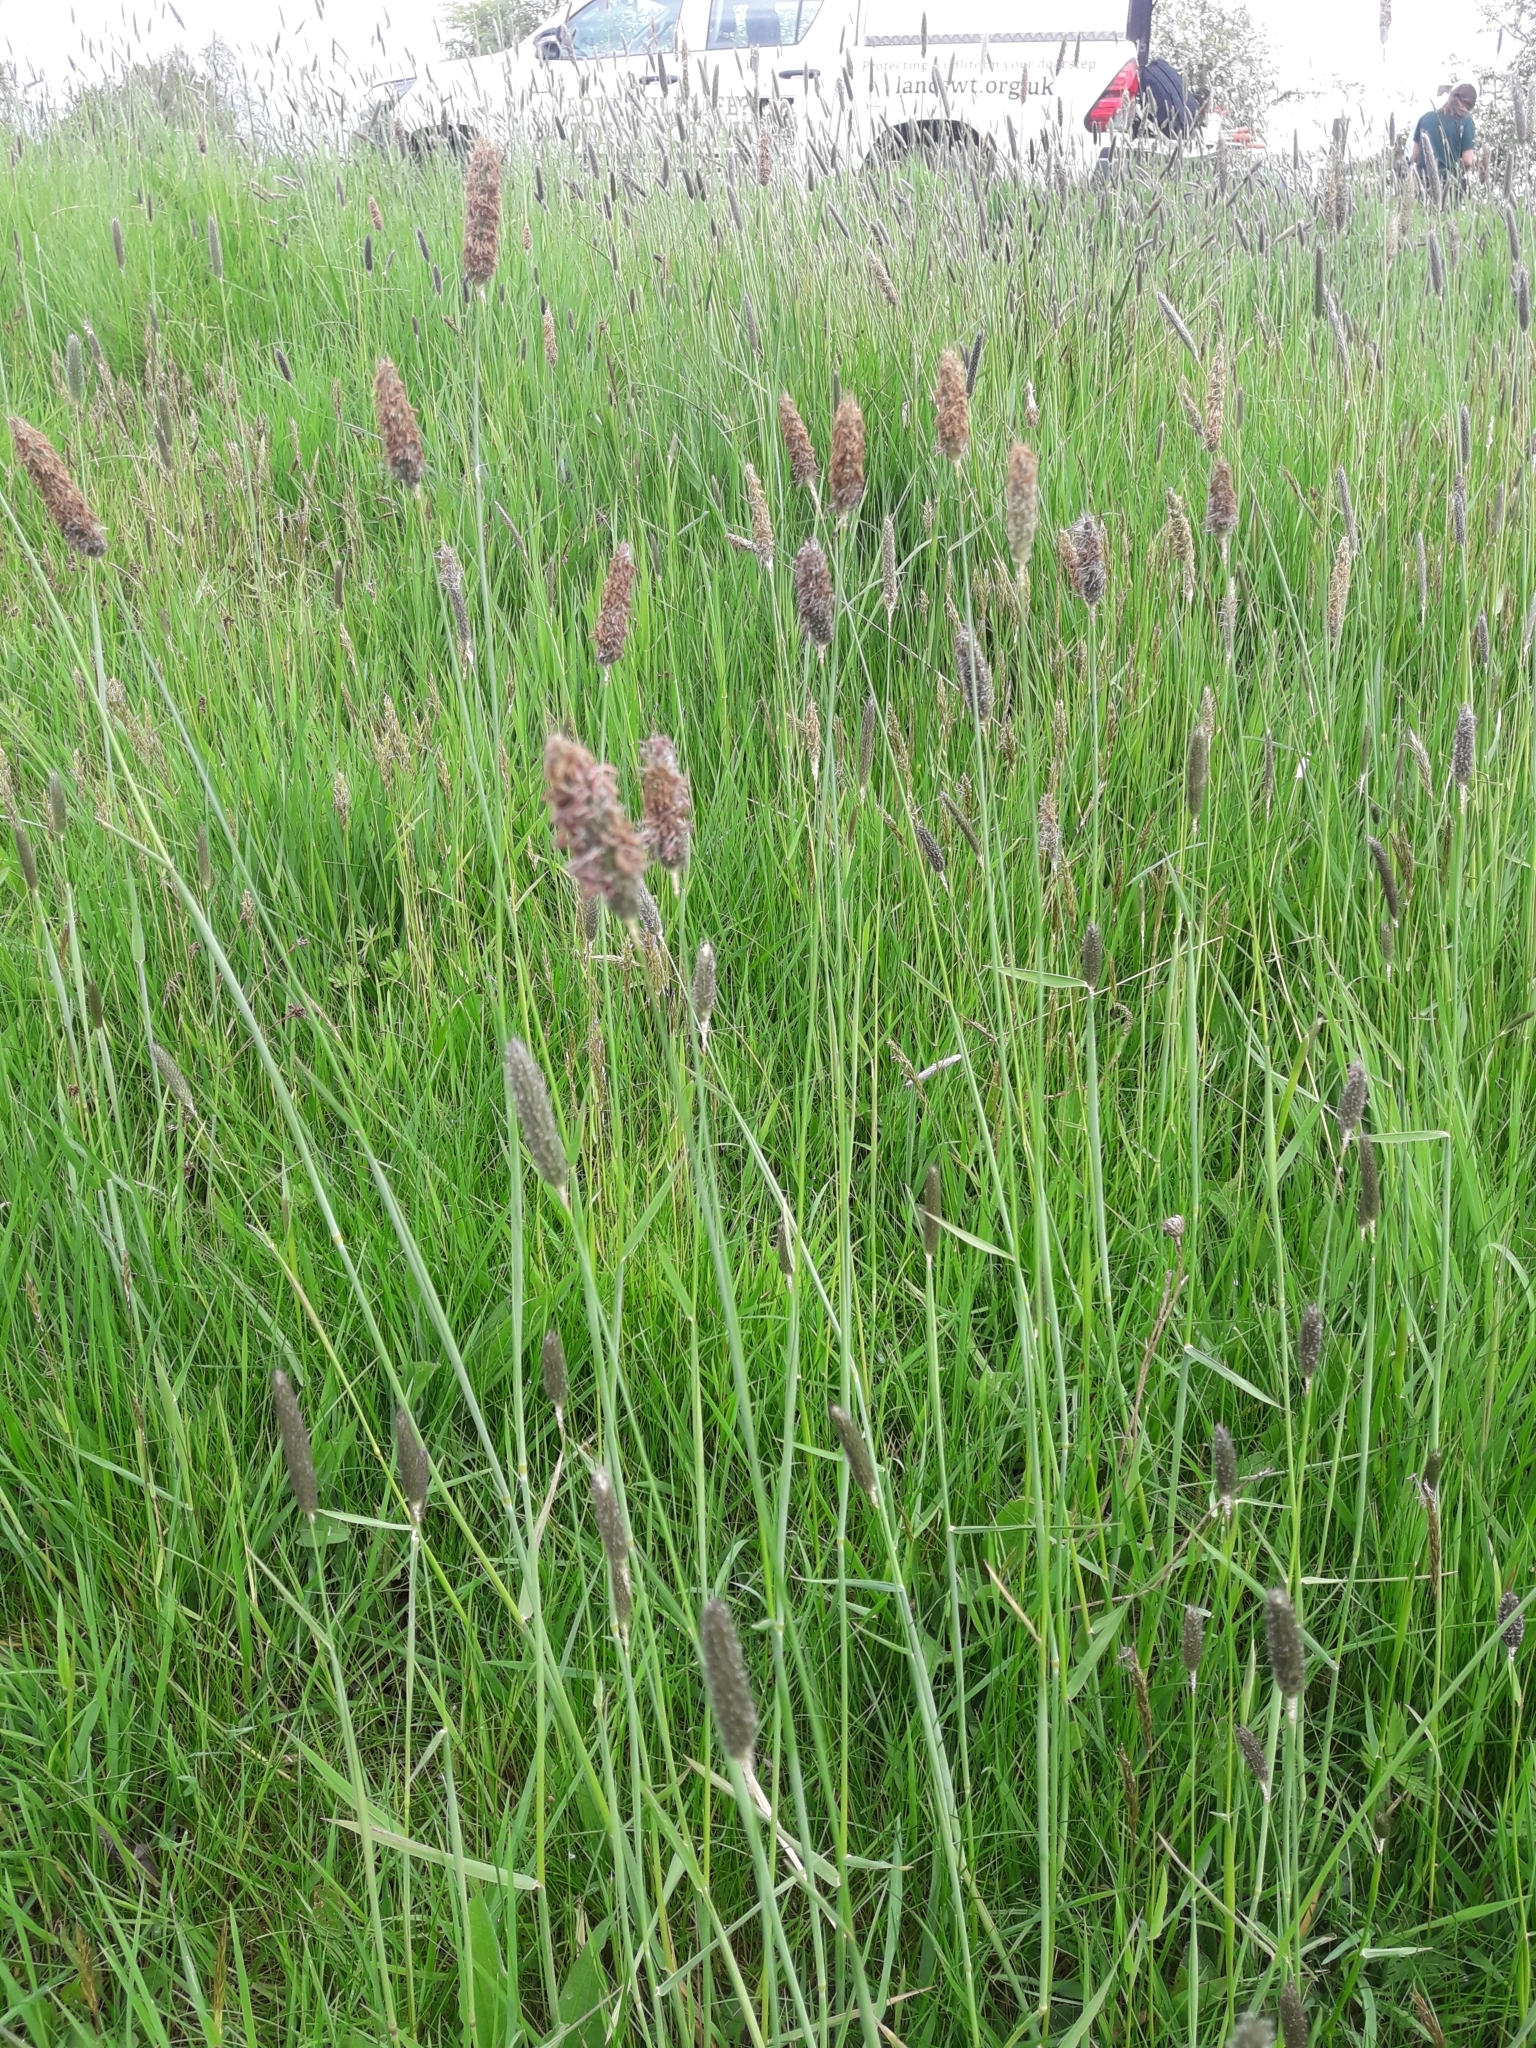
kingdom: Plantae
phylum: Tracheophyta
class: Liliopsida
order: Poales
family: Poaceae
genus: Alopecurus
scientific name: Alopecurus pratensis
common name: Meadow foxtail
